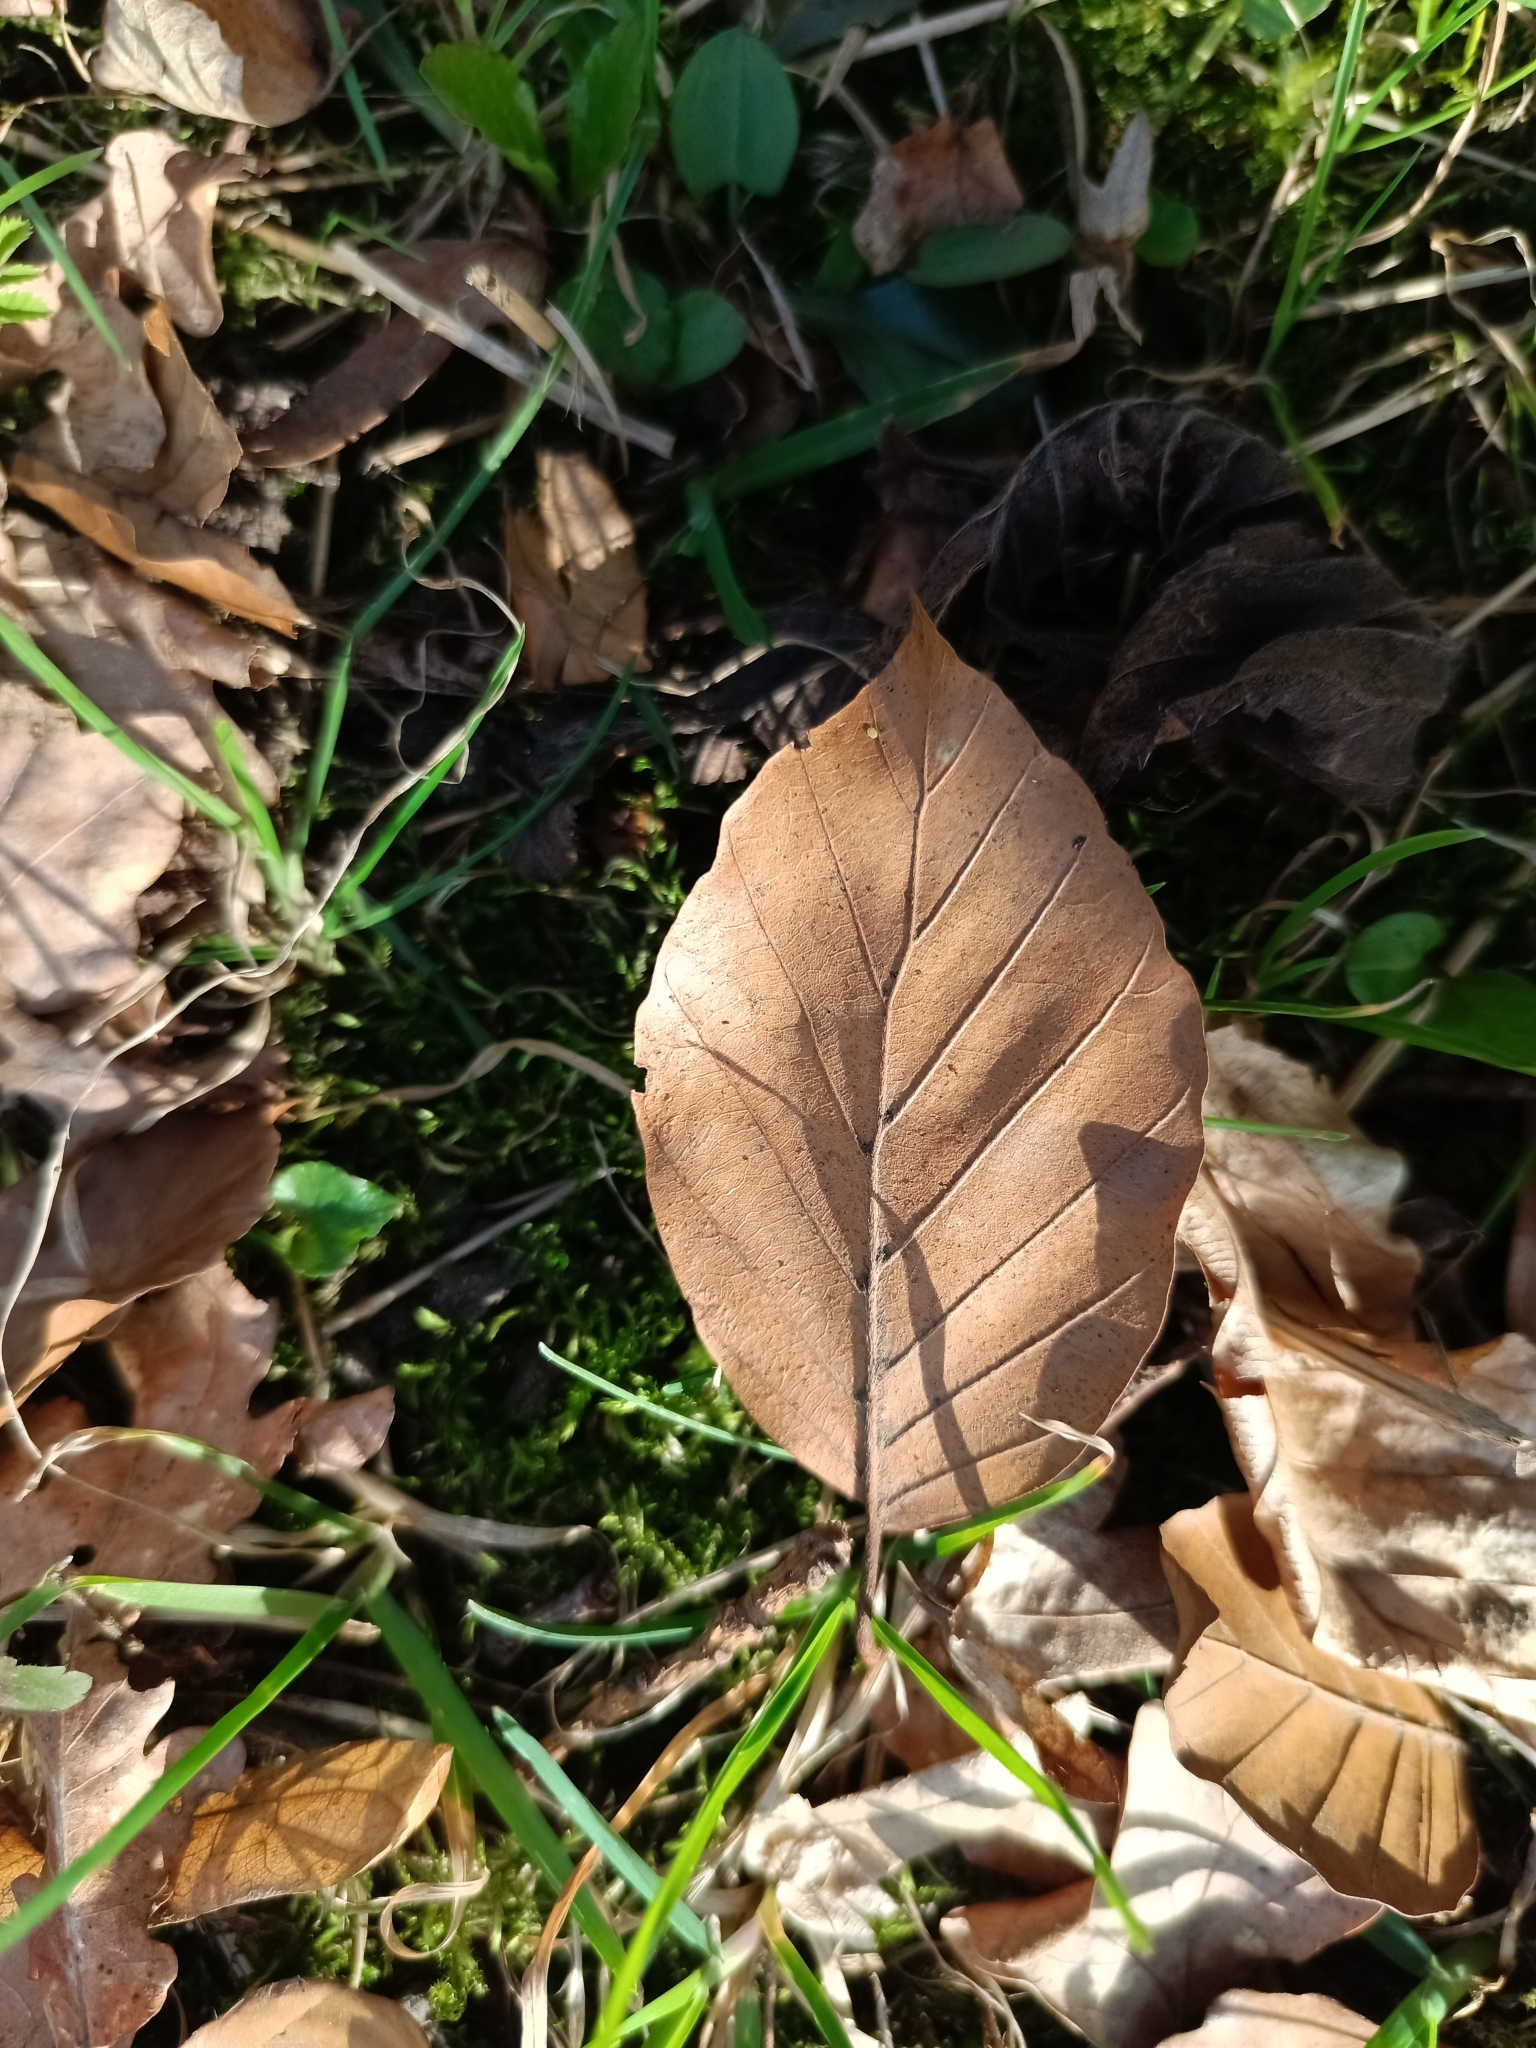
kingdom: Plantae
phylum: Tracheophyta
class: Magnoliopsida
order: Fagales
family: Fagaceae
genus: Fagus
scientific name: Fagus sylvatica
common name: Beech
